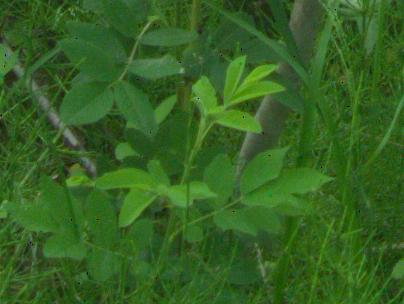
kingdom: Plantae
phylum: Tracheophyta
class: Magnoliopsida
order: Rosales
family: Rosaceae
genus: Rosa
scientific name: Rosa
